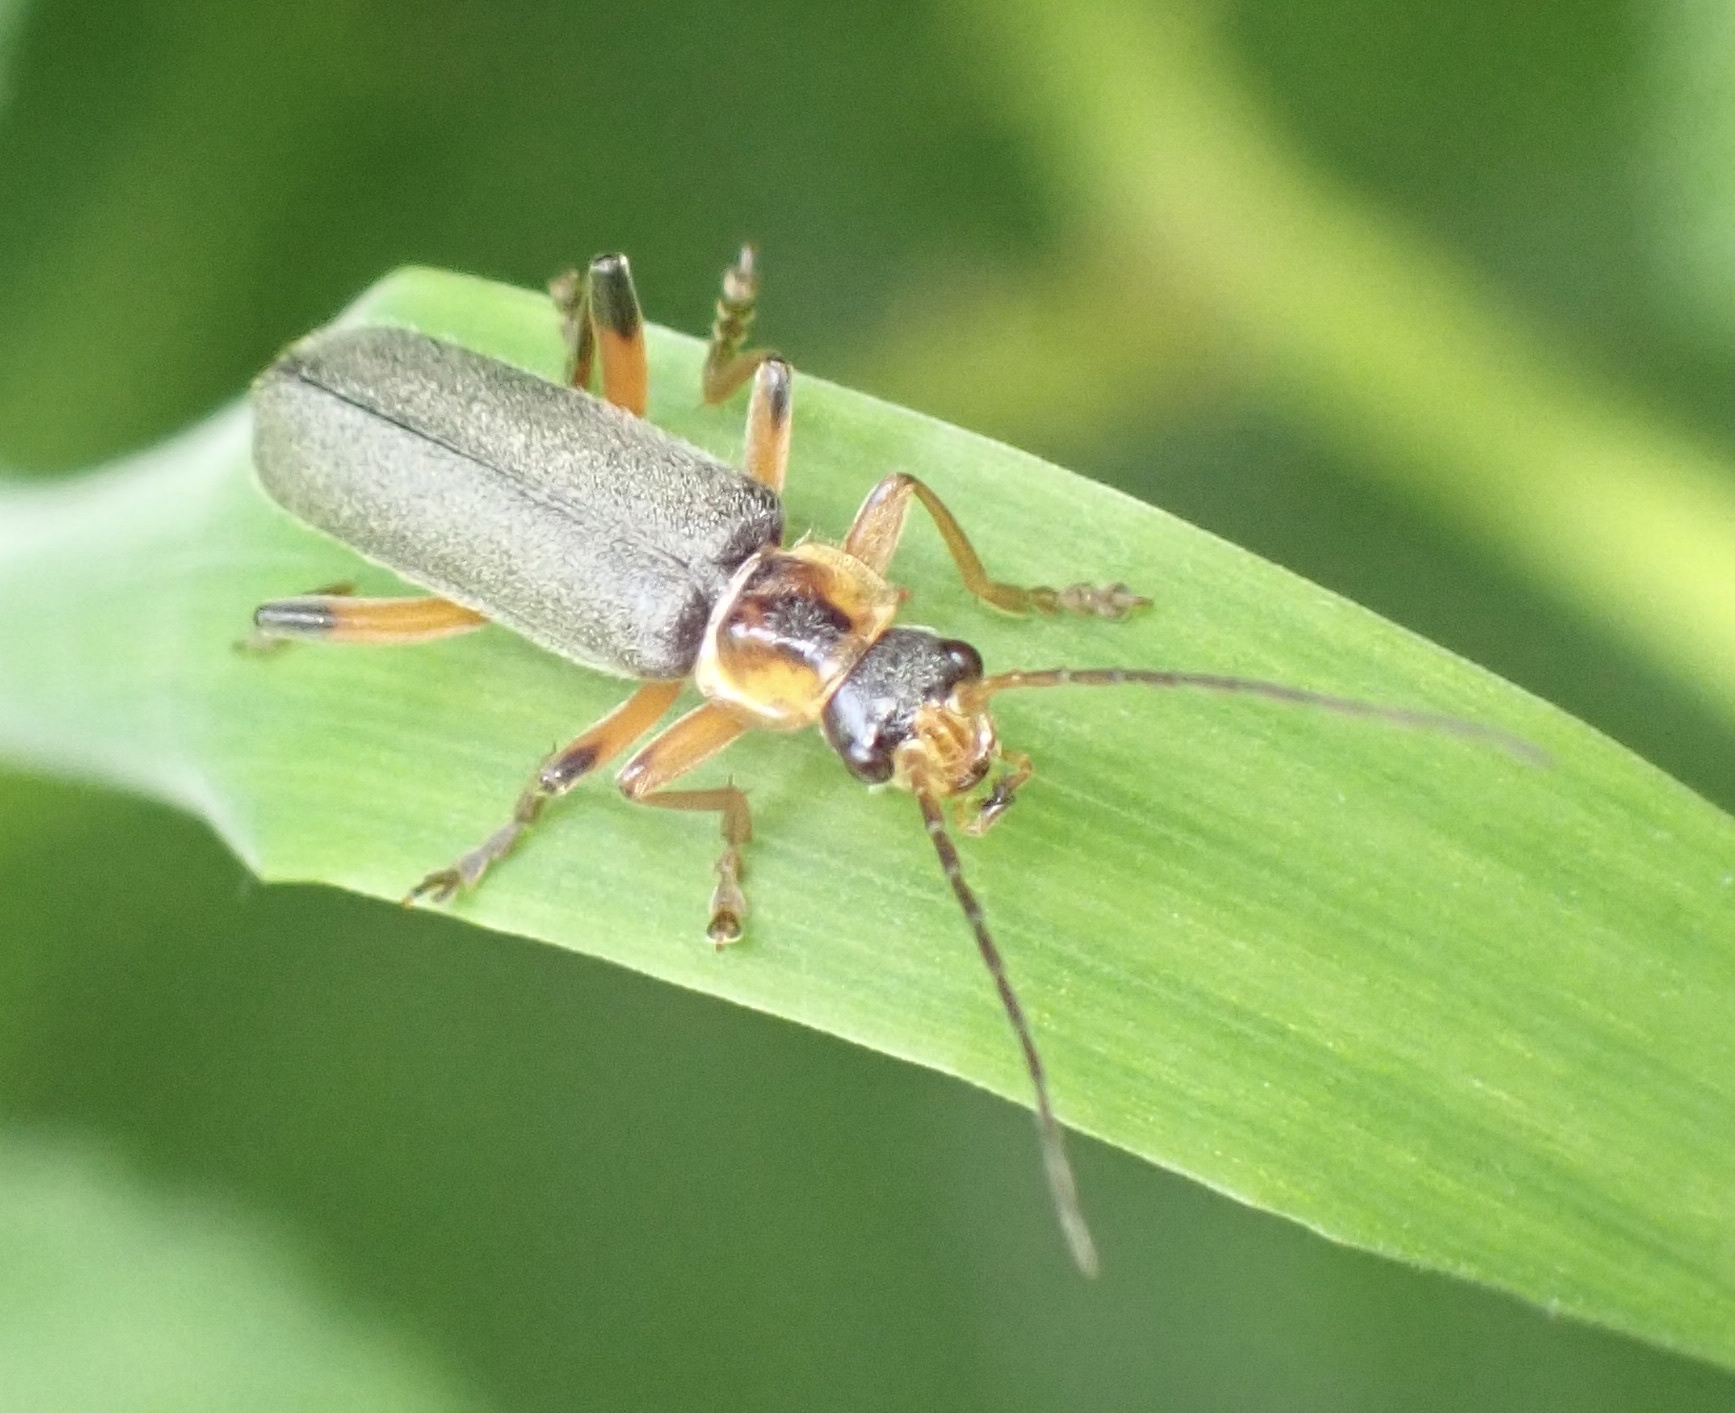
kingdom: Animalia
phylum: Arthropoda
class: Insecta
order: Coleoptera
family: Cantharidae
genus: Cantharis
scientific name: Cantharis nigricans
